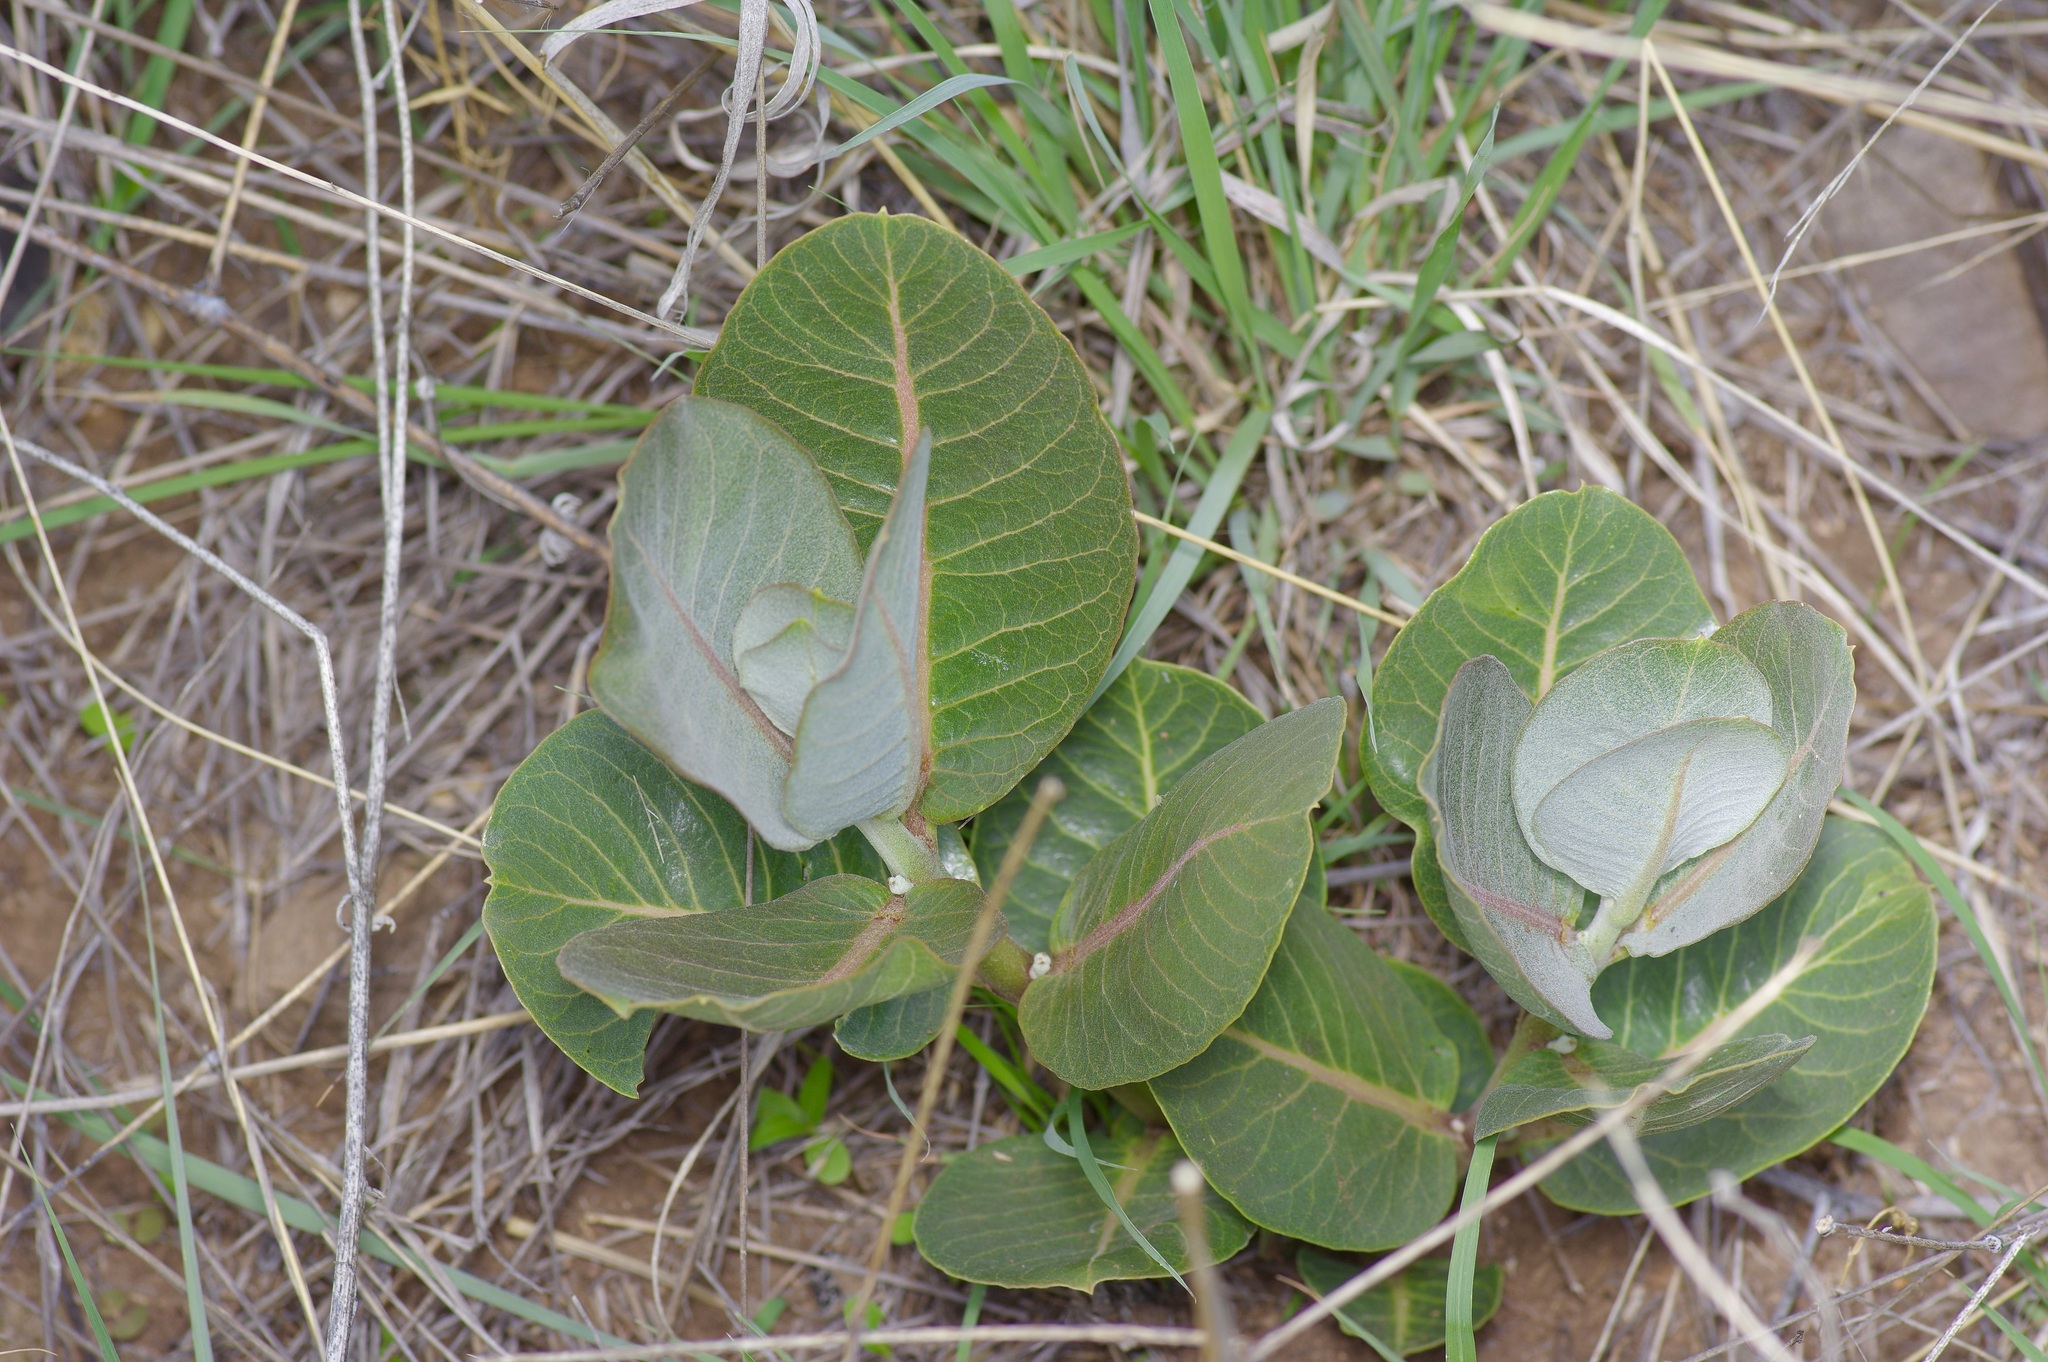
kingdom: Plantae
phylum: Tracheophyta
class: Magnoliopsida
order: Gentianales
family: Apocynaceae
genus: Asclepias
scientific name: Asclepias latifolia
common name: Broadleaf milkweed
